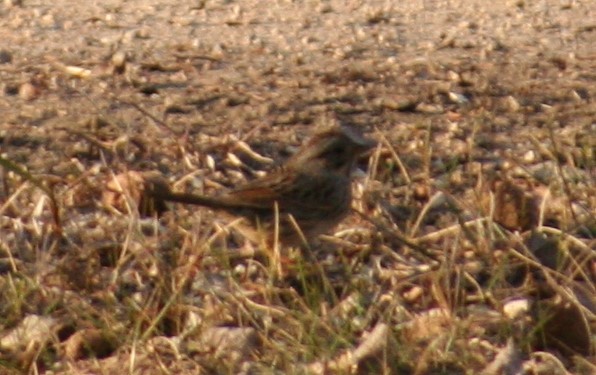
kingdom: Animalia
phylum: Chordata
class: Aves
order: Passeriformes
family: Passerellidae
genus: Melospiza
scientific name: Melospiza lincolnii
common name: Lincoln's sparrow
